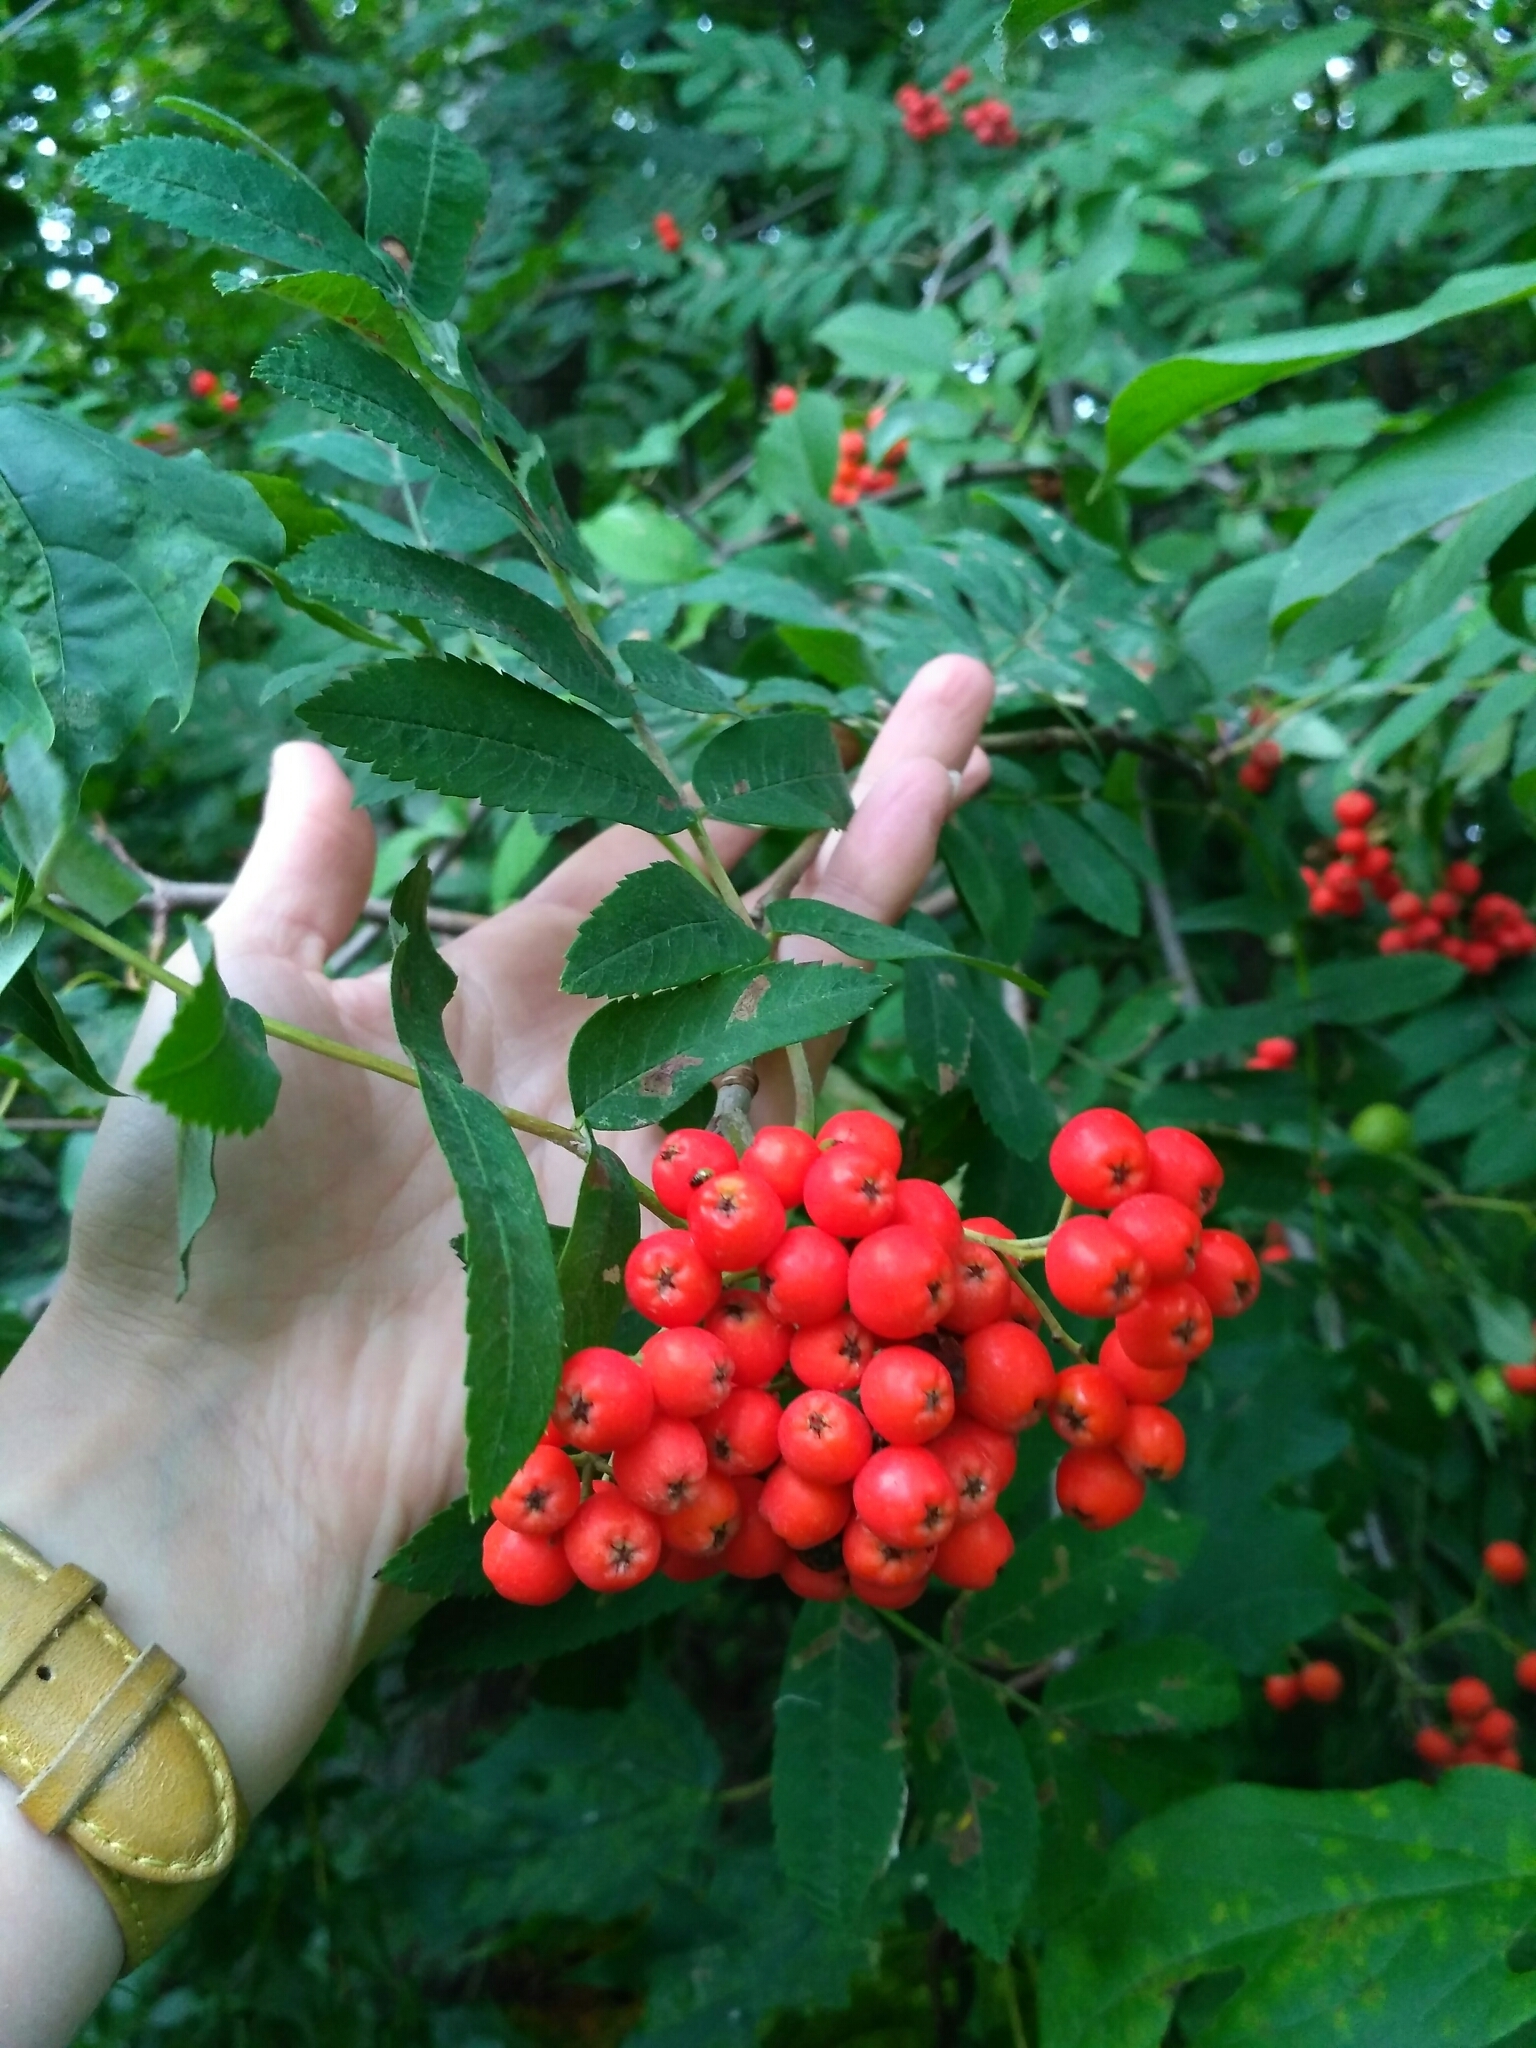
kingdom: Plantae
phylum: Tracheophyta
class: Magnoliopsida
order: Rosales
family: Rosaceae
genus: Sorbus
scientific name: Sorbus aucuparia
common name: Rowan
